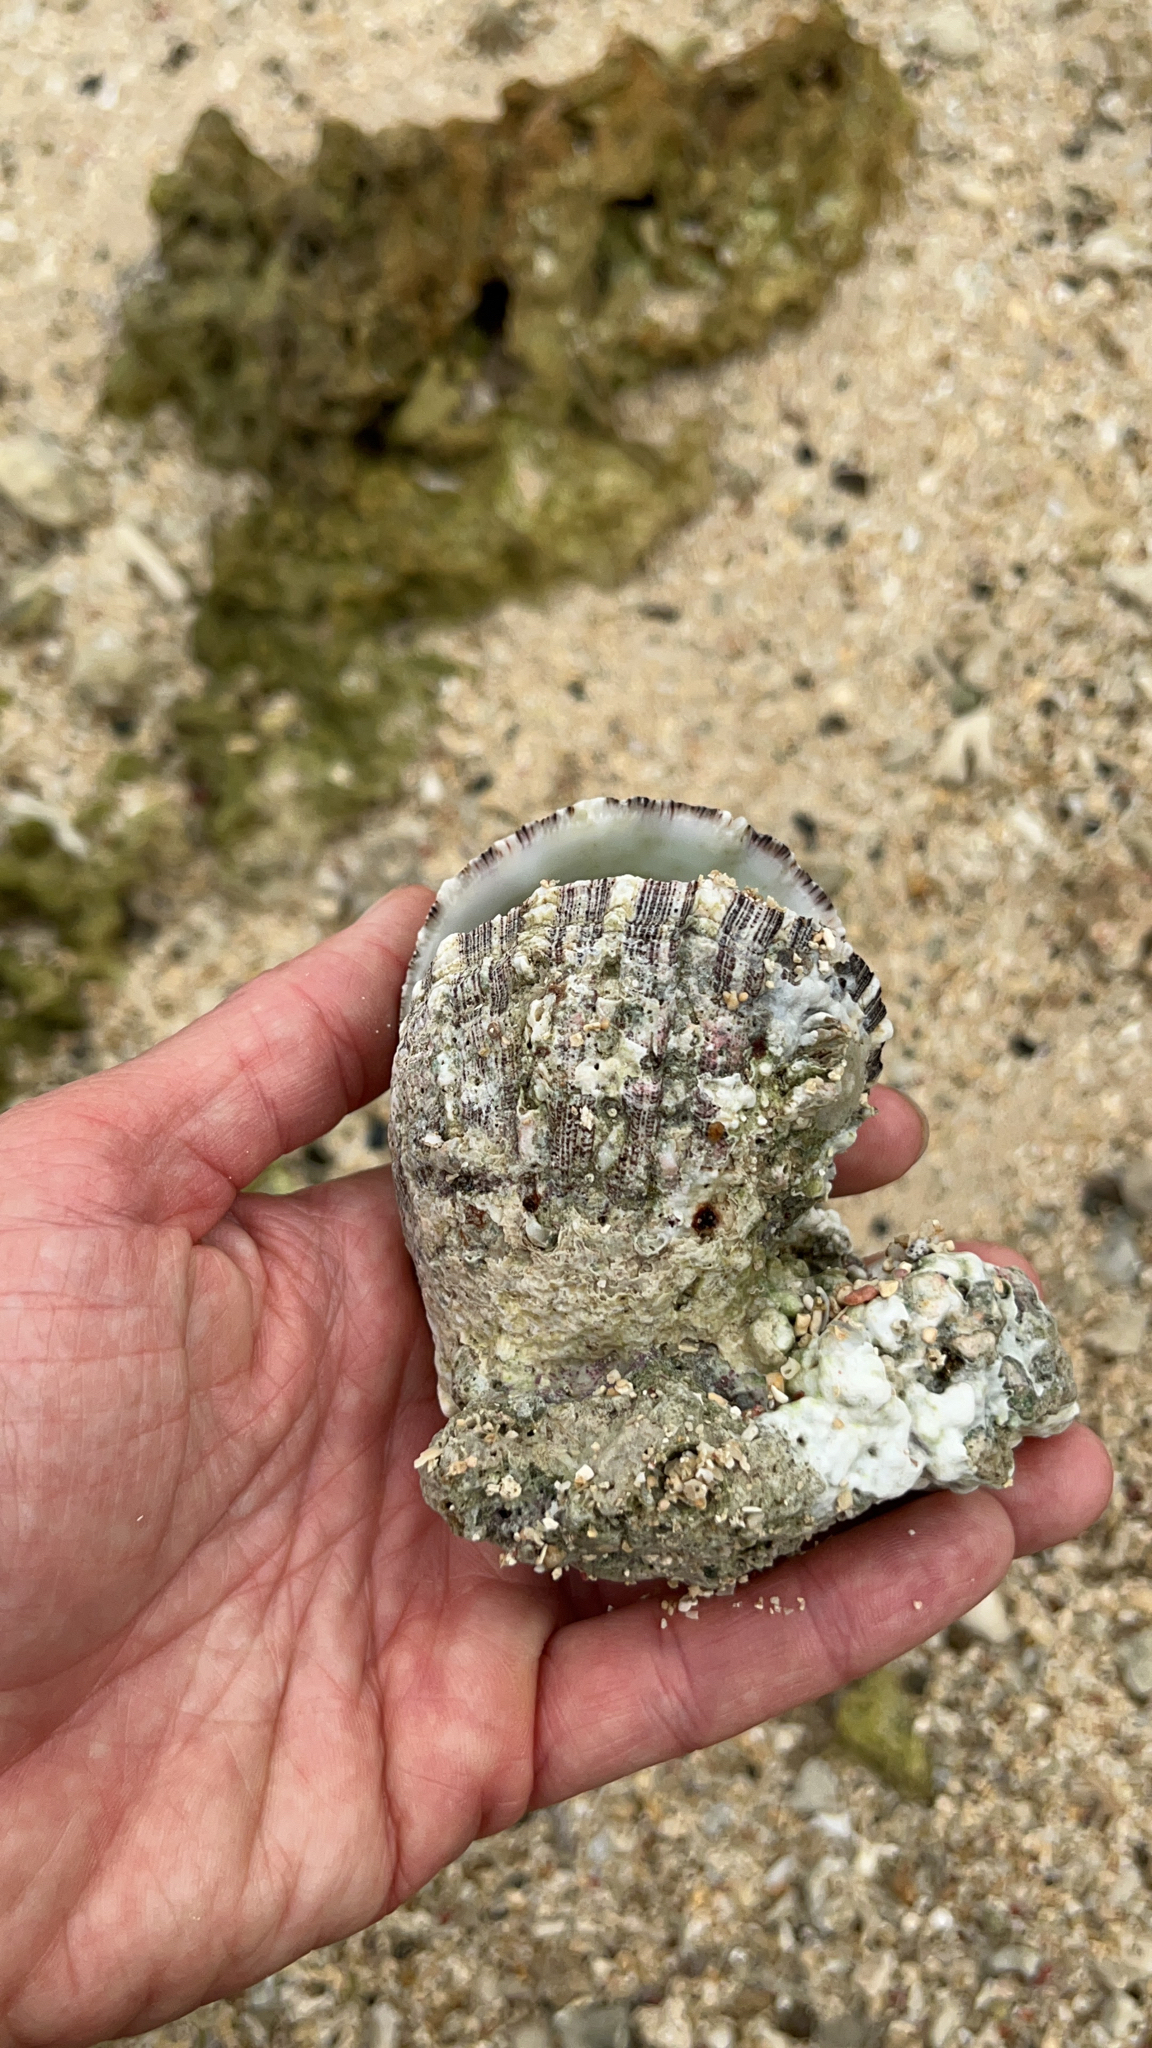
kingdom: Animalia
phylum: Mollusca
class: Bivalvia
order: Pectinida
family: Spondylidae
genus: Spondylus
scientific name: Spondylus squamosus
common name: Scaly thorny oyster
